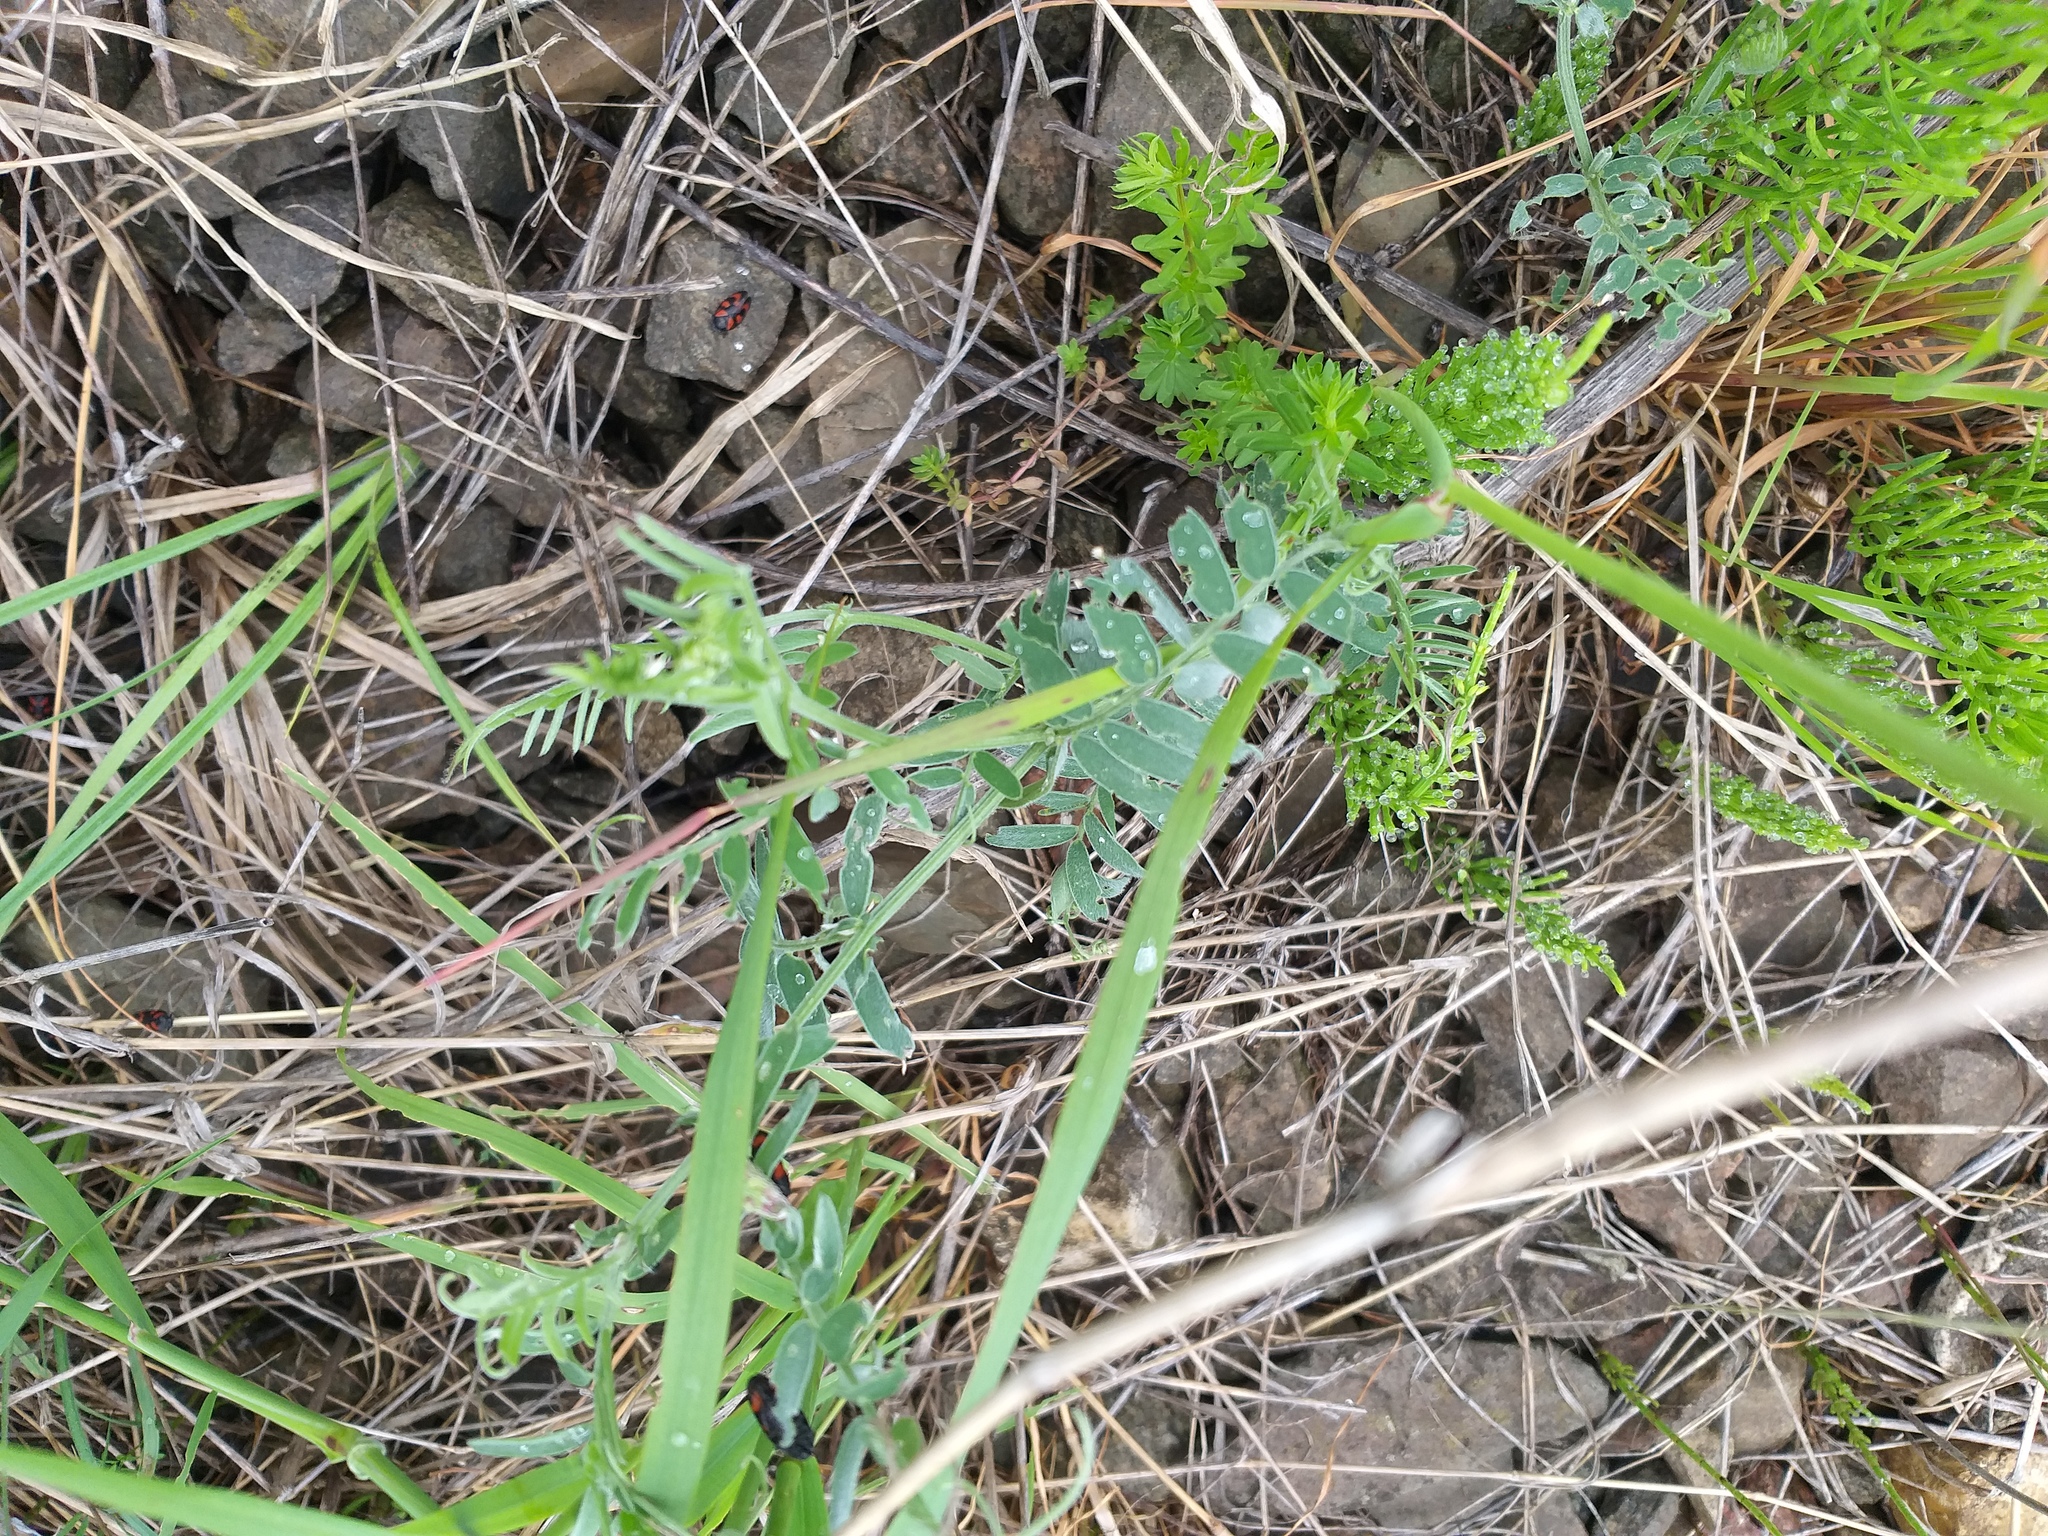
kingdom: Plantae
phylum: Tracheophyta
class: Magnoliopsida
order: Fabales
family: Fabaceae
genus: Vicia
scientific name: Vicia cracca
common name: Bird vetch
